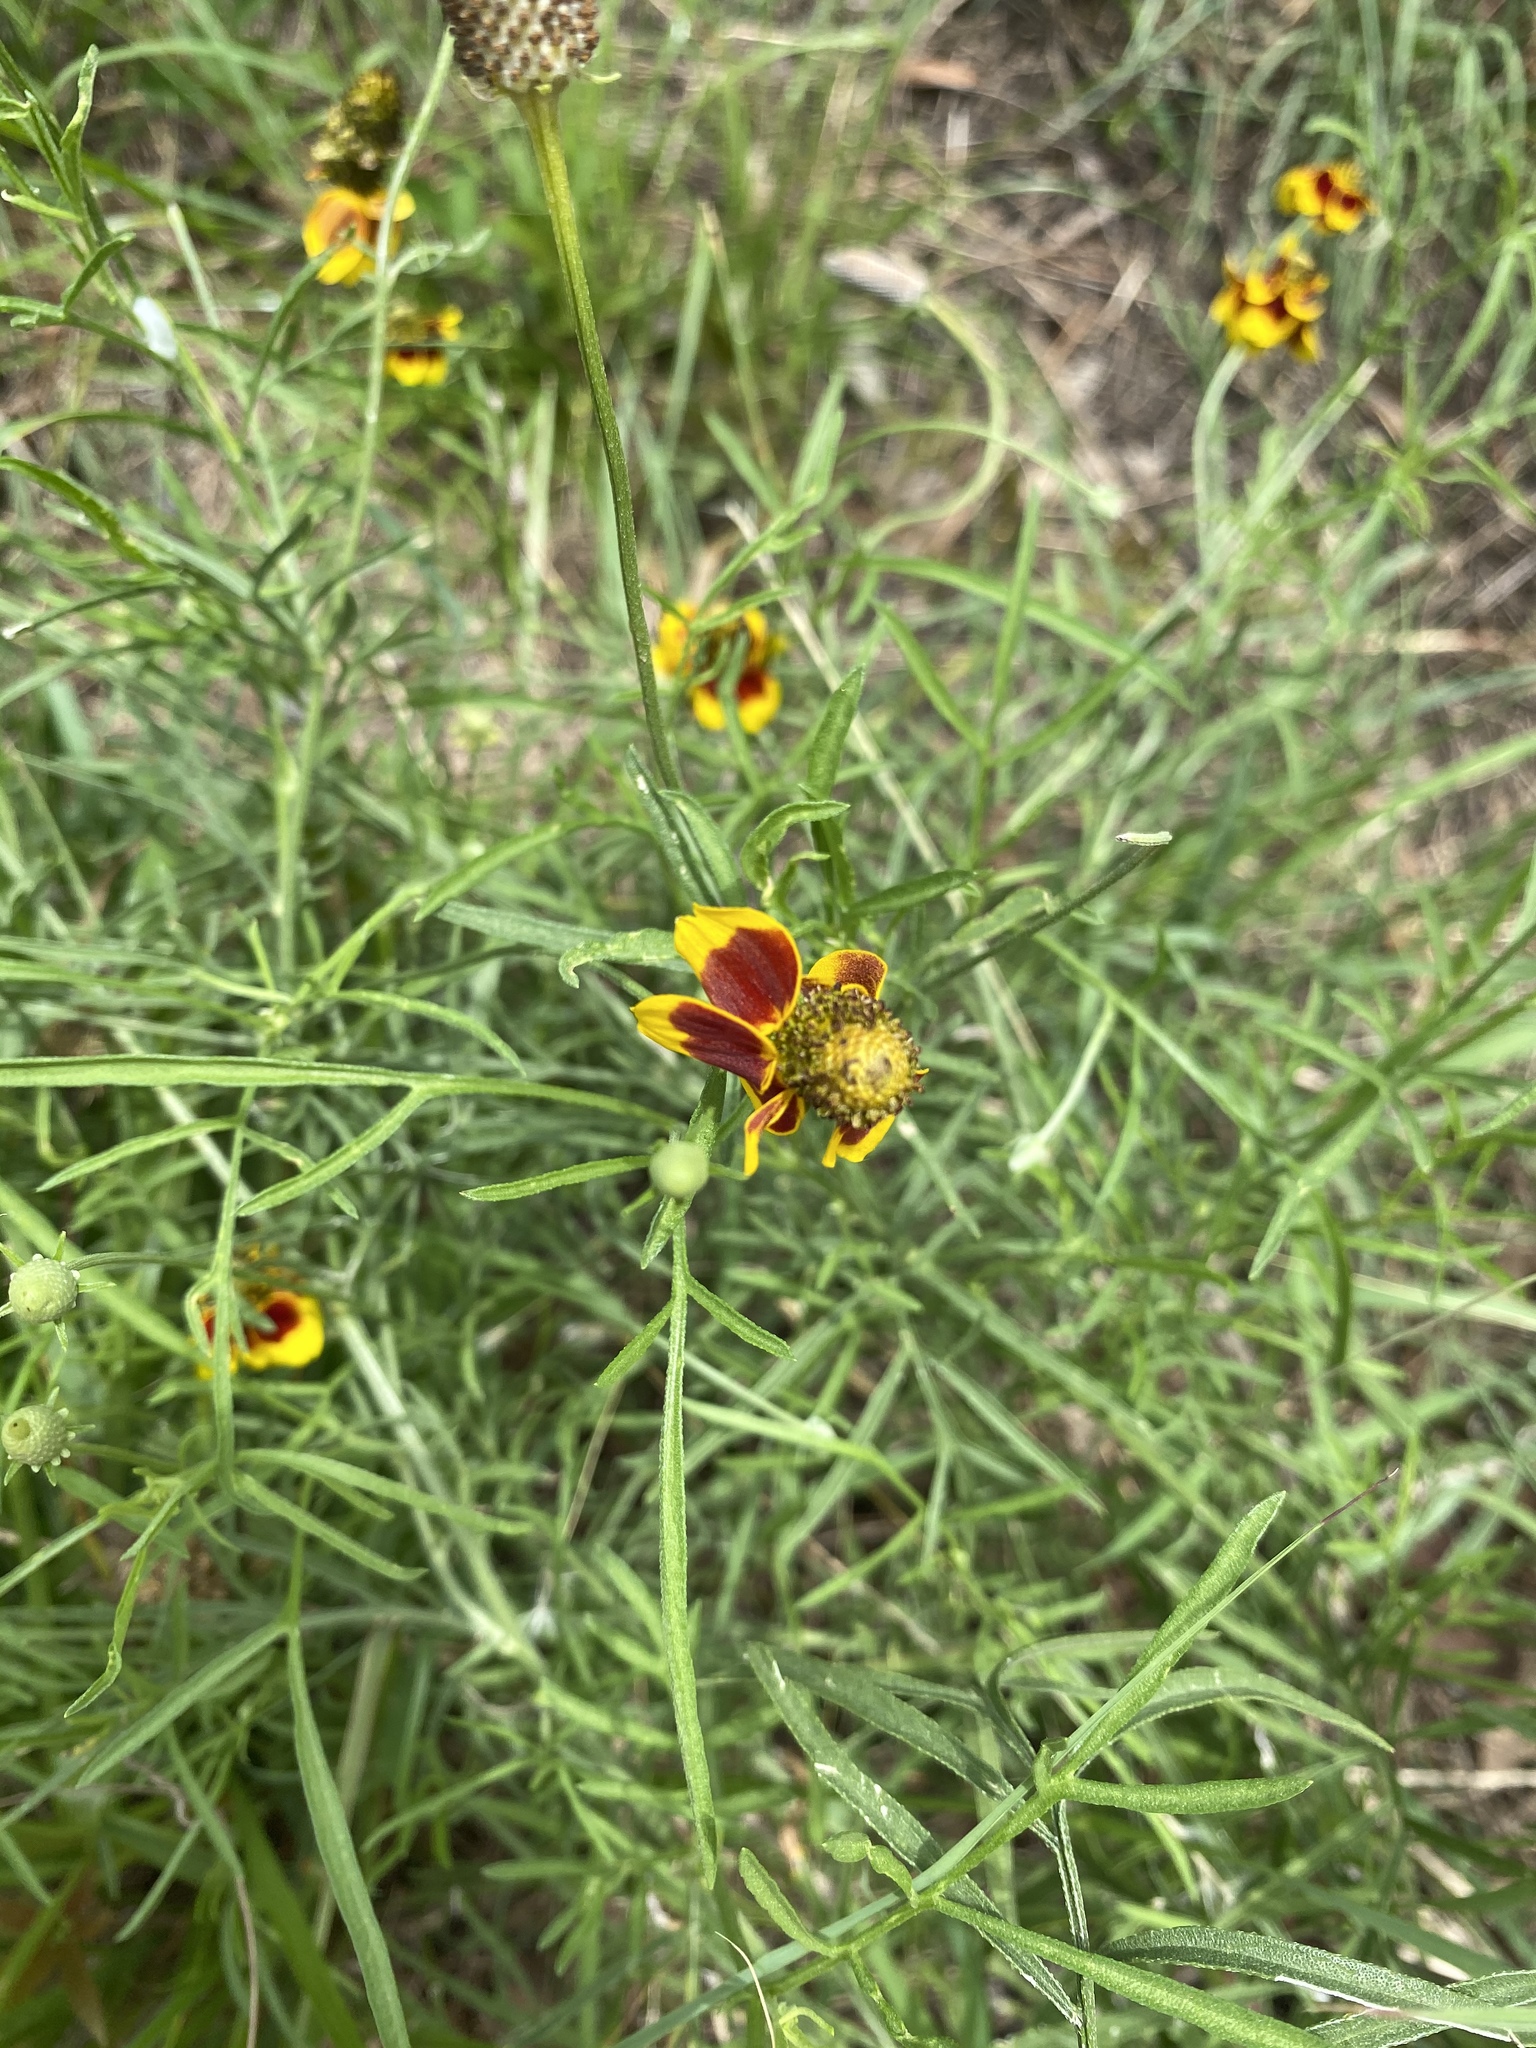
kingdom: Plantae
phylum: Tracheophyta
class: Magnoliopsida
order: Asterales
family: Asteraceae
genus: Ratibida
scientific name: Ratibida columnifera
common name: Prairie coneflower
